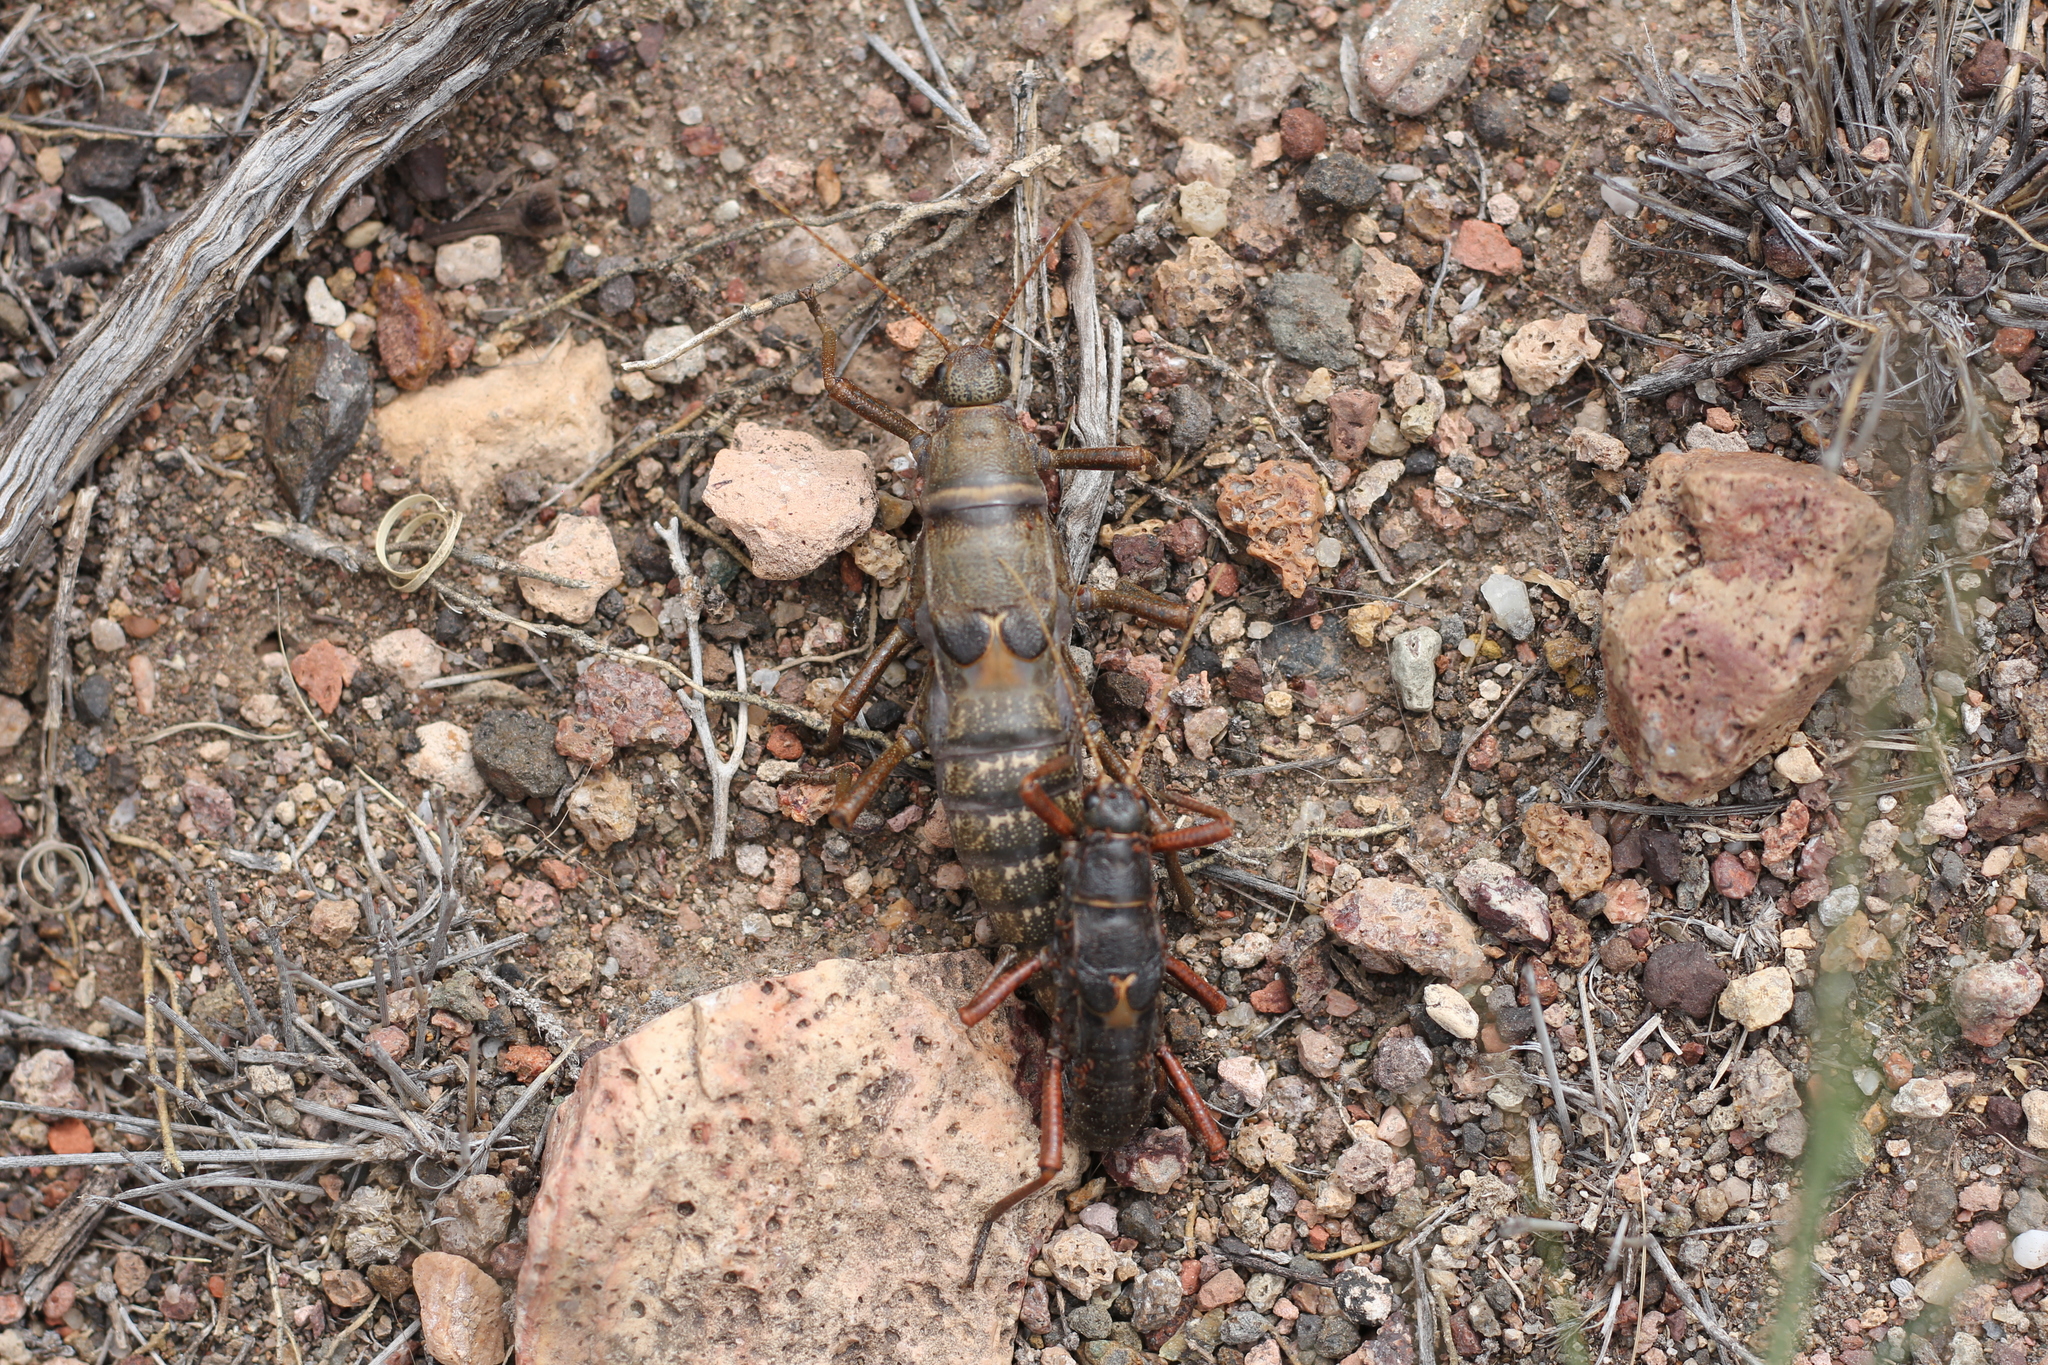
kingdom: Animalia
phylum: Arthropoda
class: Insecta
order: Phasmida
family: Agathemeridae
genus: Agathemera
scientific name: Agathemera millepunctata
